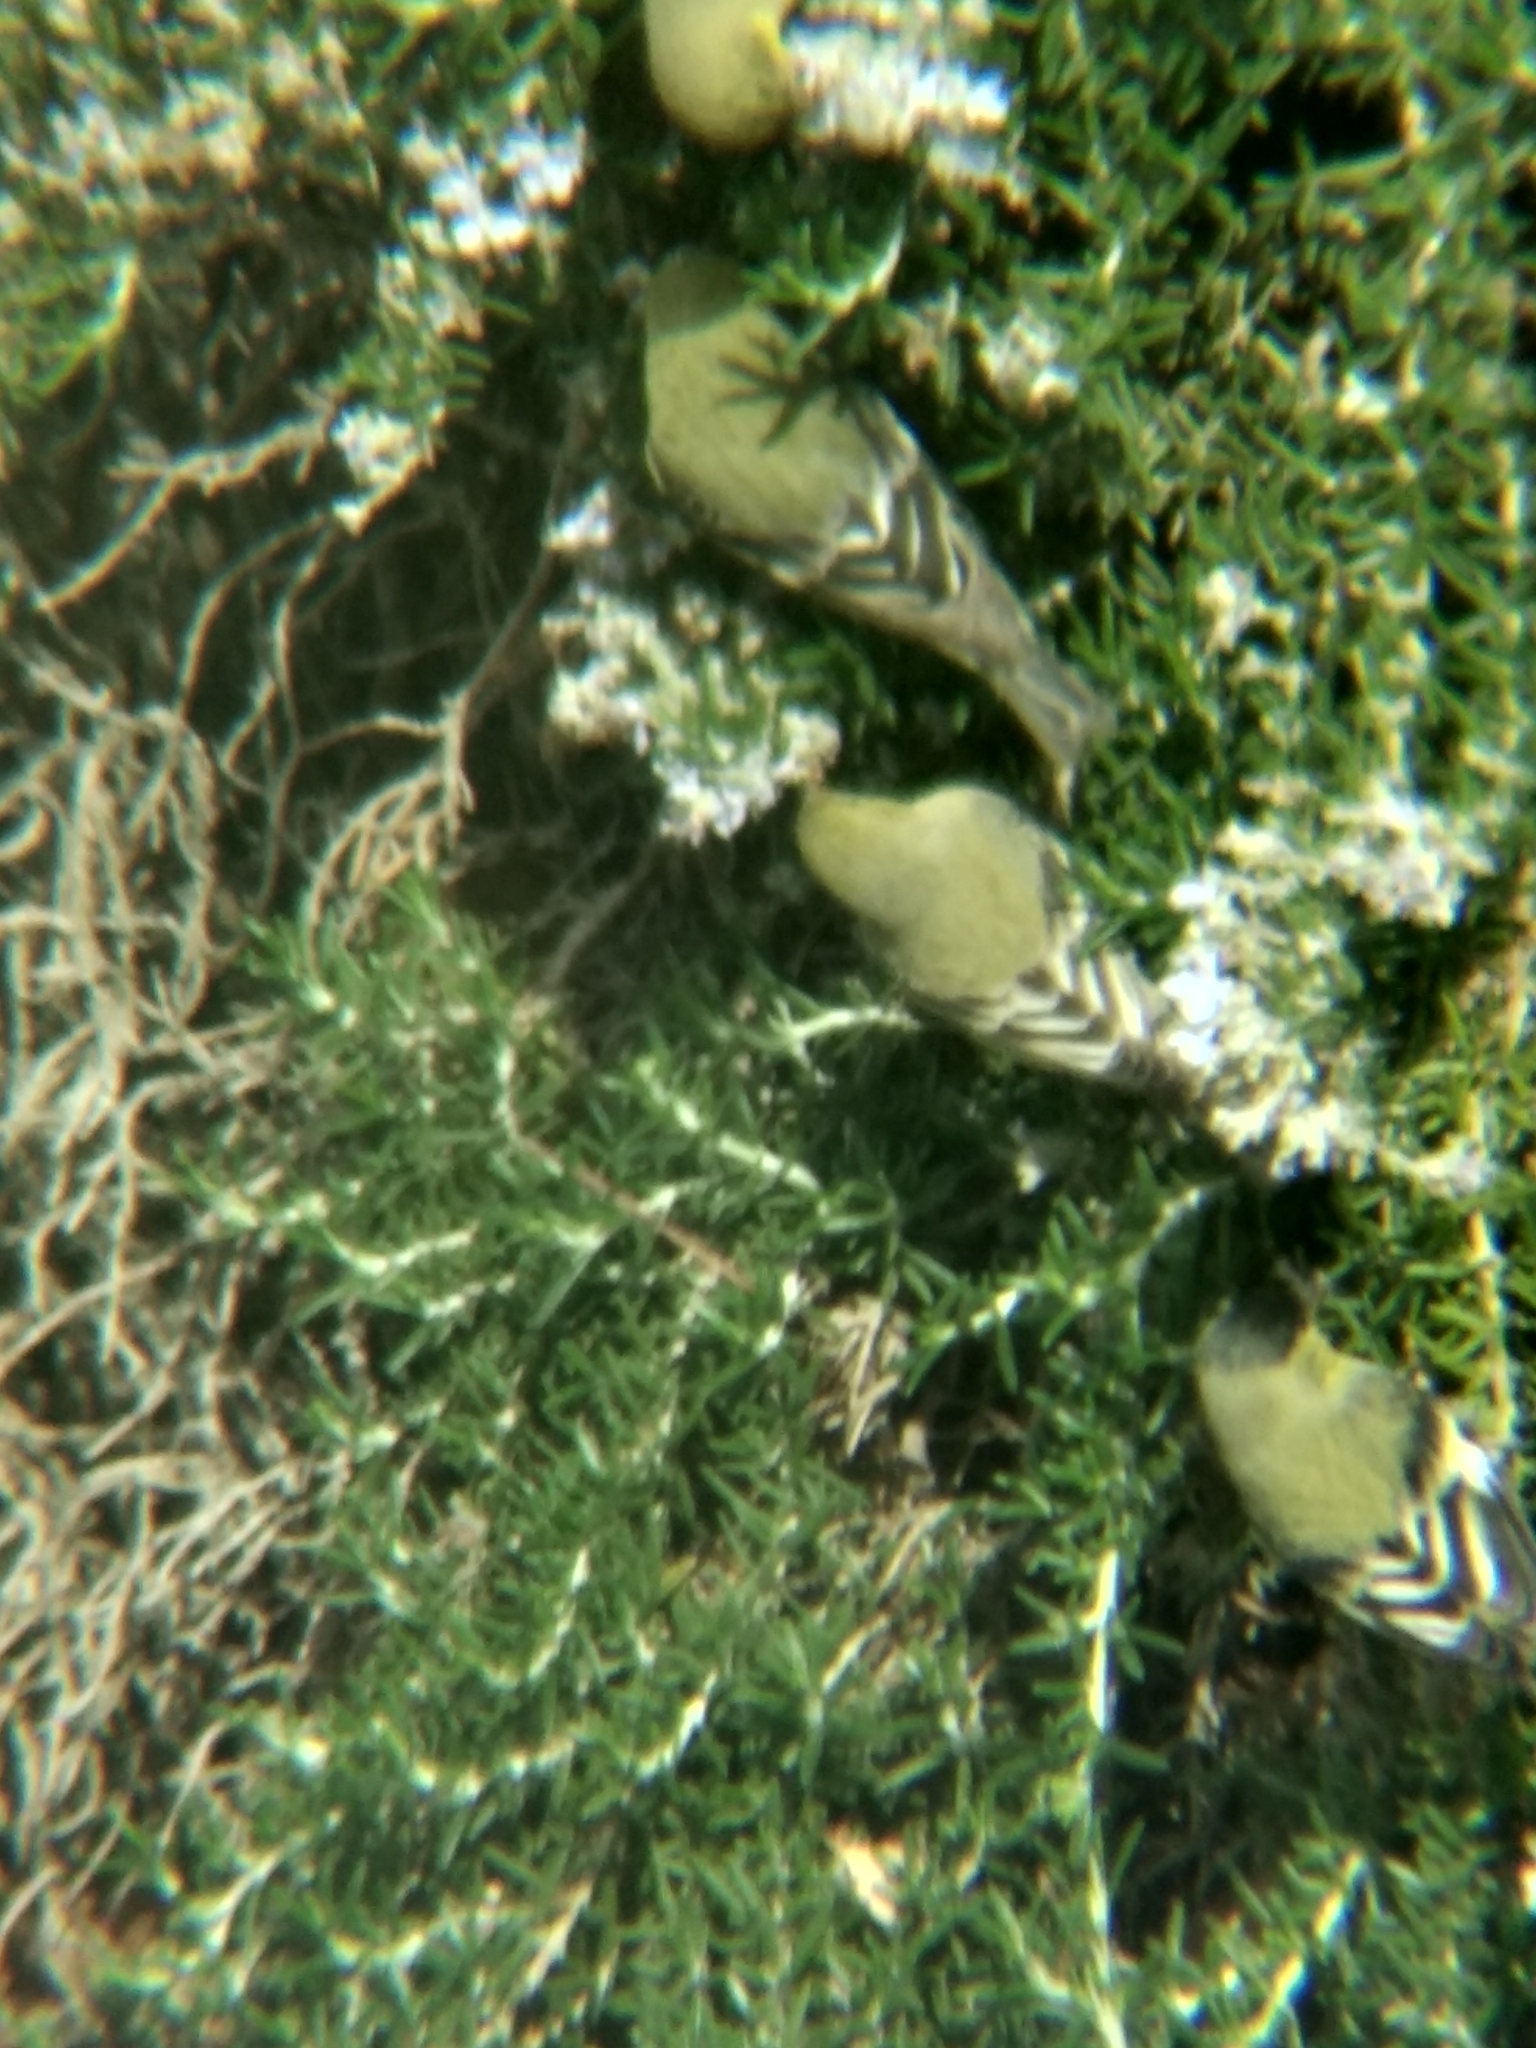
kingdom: Animalia
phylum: Chordata
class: Aves
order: Passeriformes
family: Fringillidae
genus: Spinus
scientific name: Spinus psaltria
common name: Lesser goldfinch
